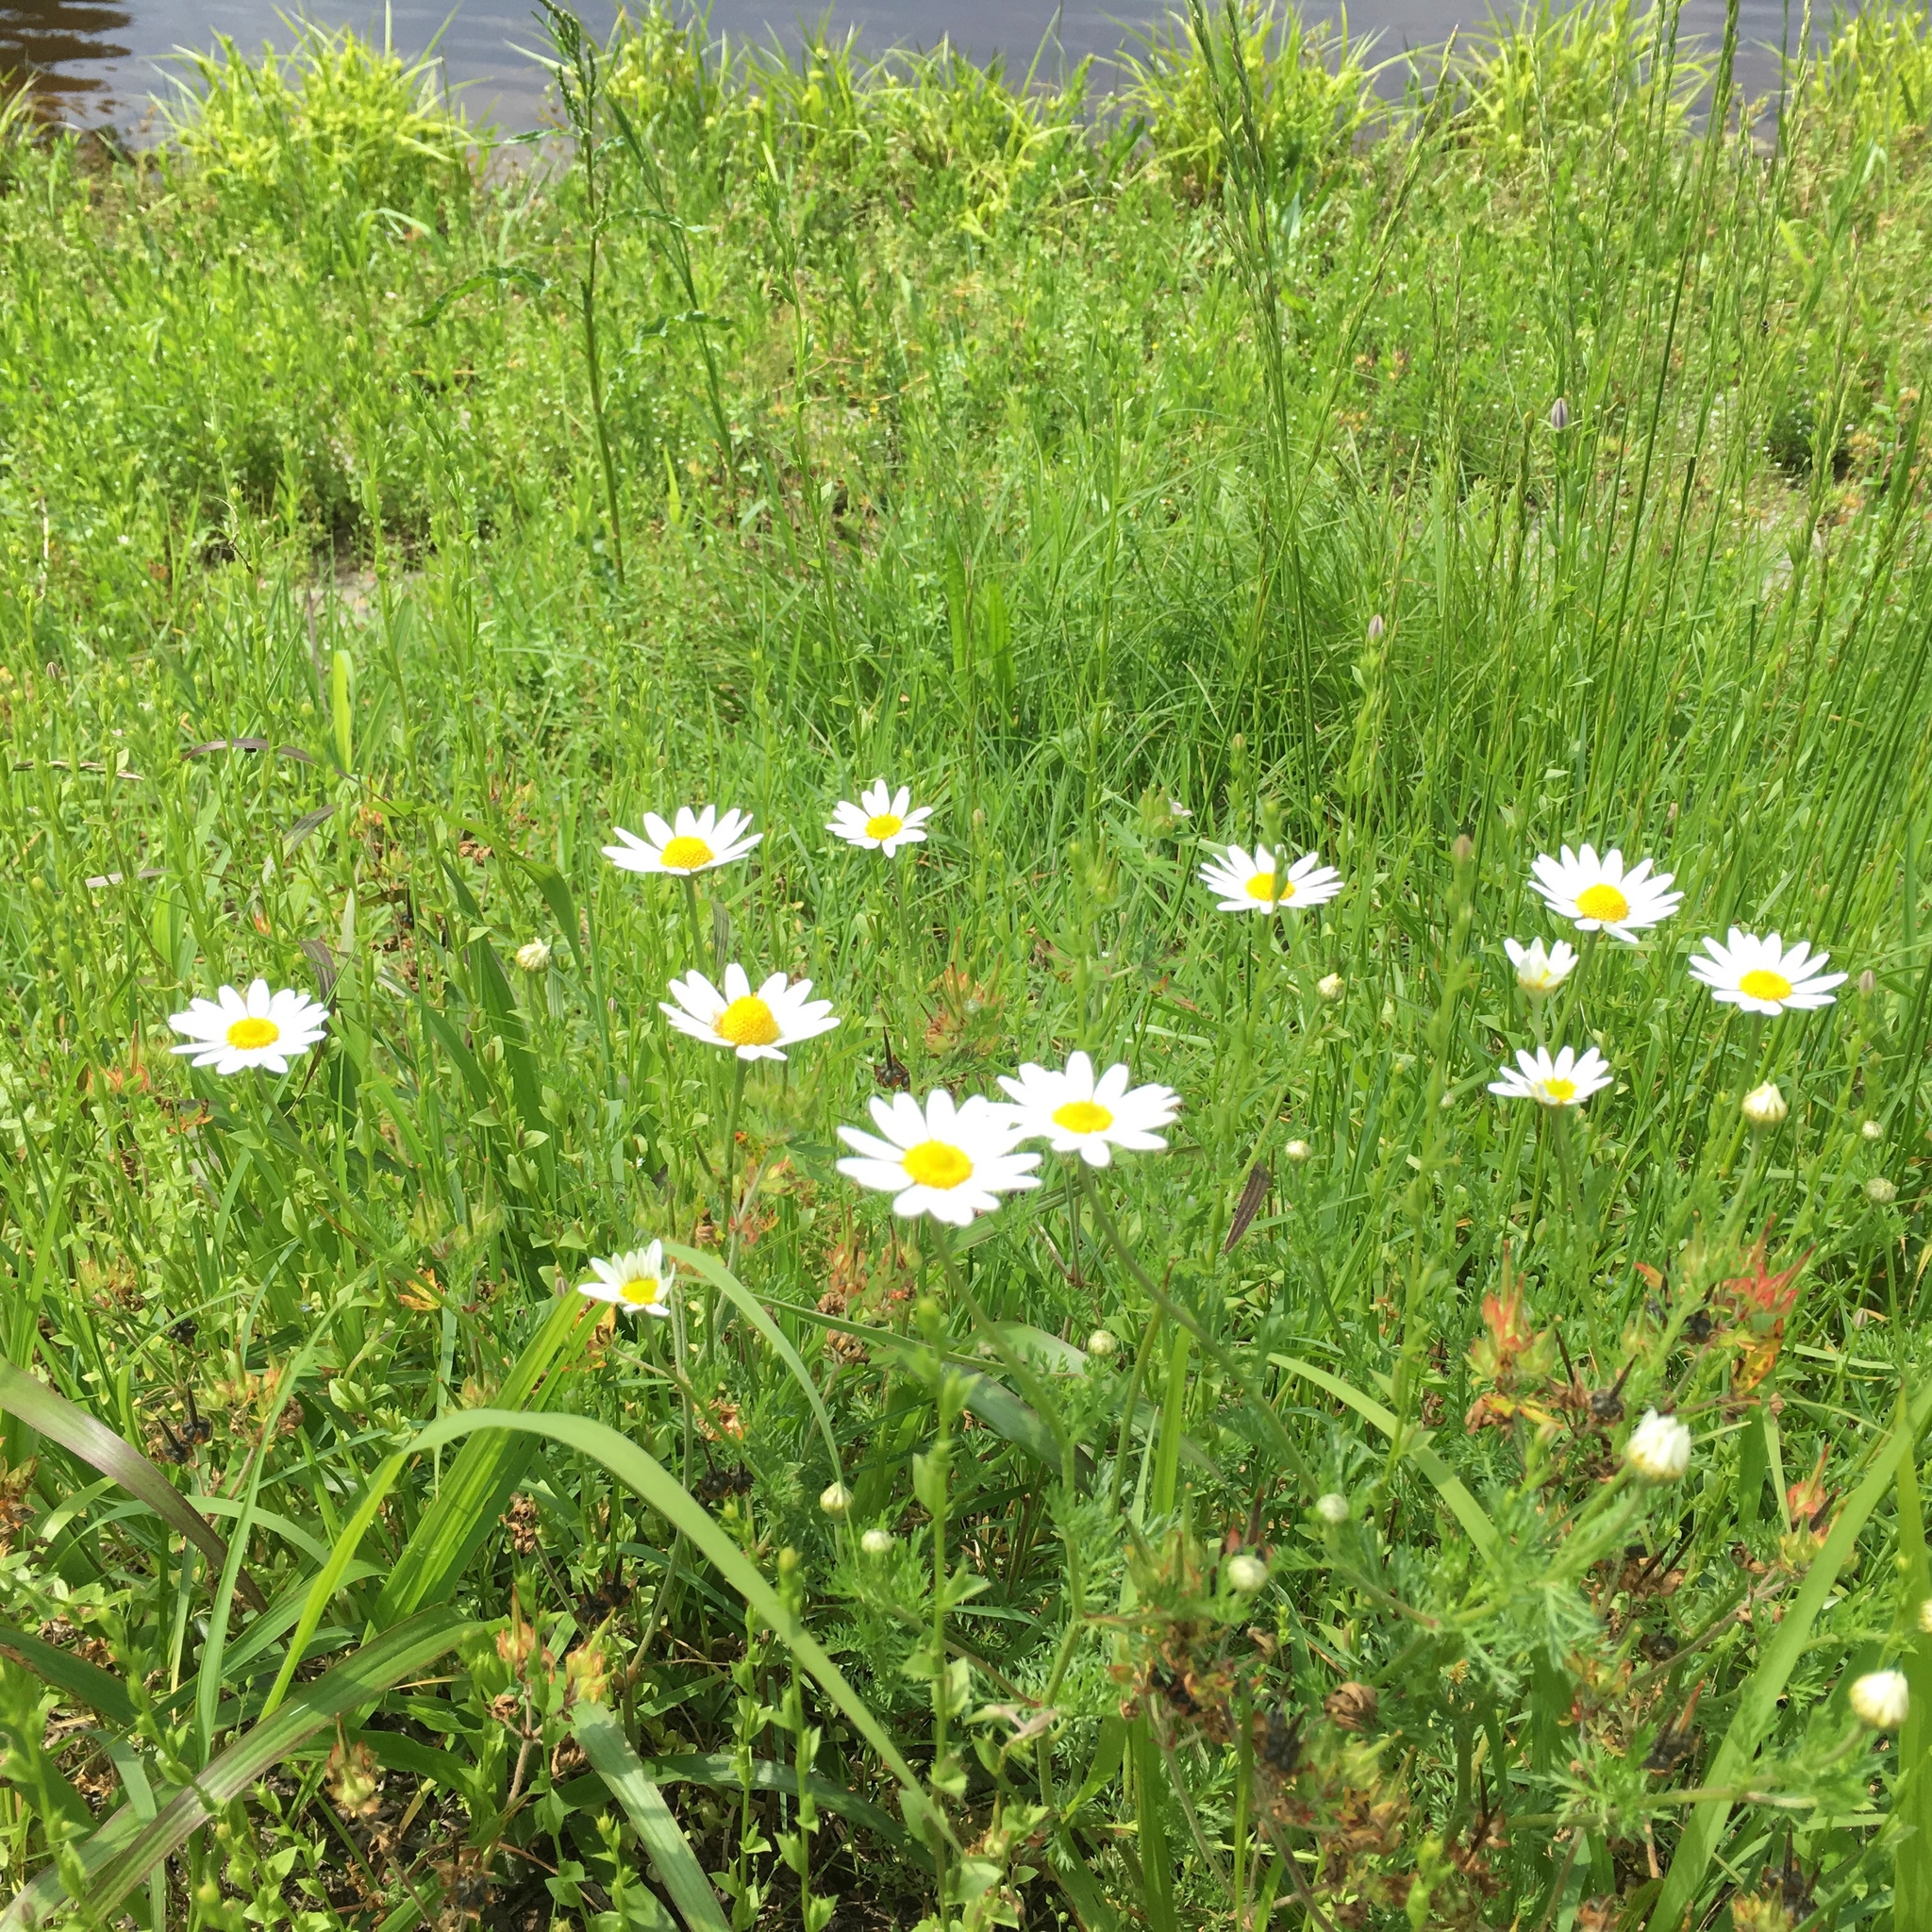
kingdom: Plantae
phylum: Tracheophyta
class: Magnoliopsida
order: Asterales
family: Asteraceae
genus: Leucanthemum
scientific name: Leucanthemum vulgare
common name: Oxeye daisy
